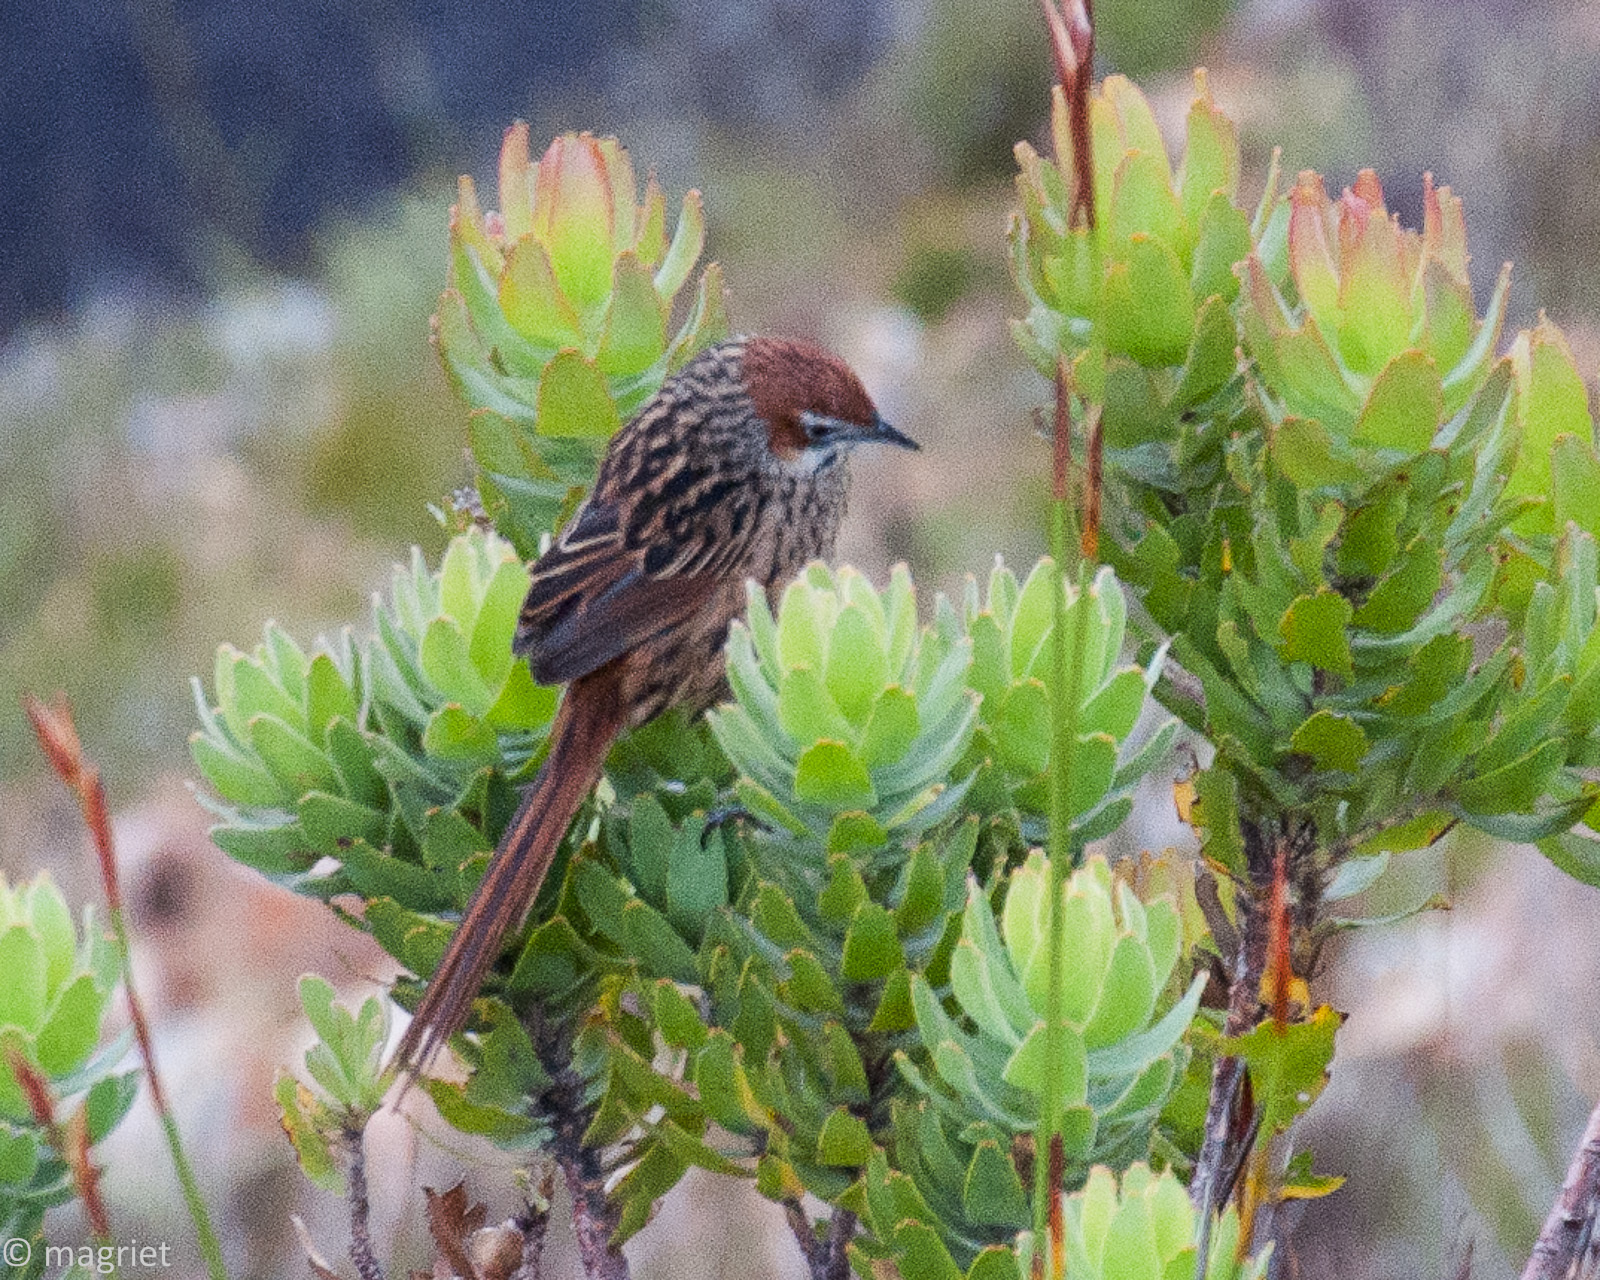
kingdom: Animalia
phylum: Chordata
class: Aves
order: Passeriformes
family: Macrosphenidae
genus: Sphenoeacus
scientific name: Sphenoeacus afer
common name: Cape grassbird
